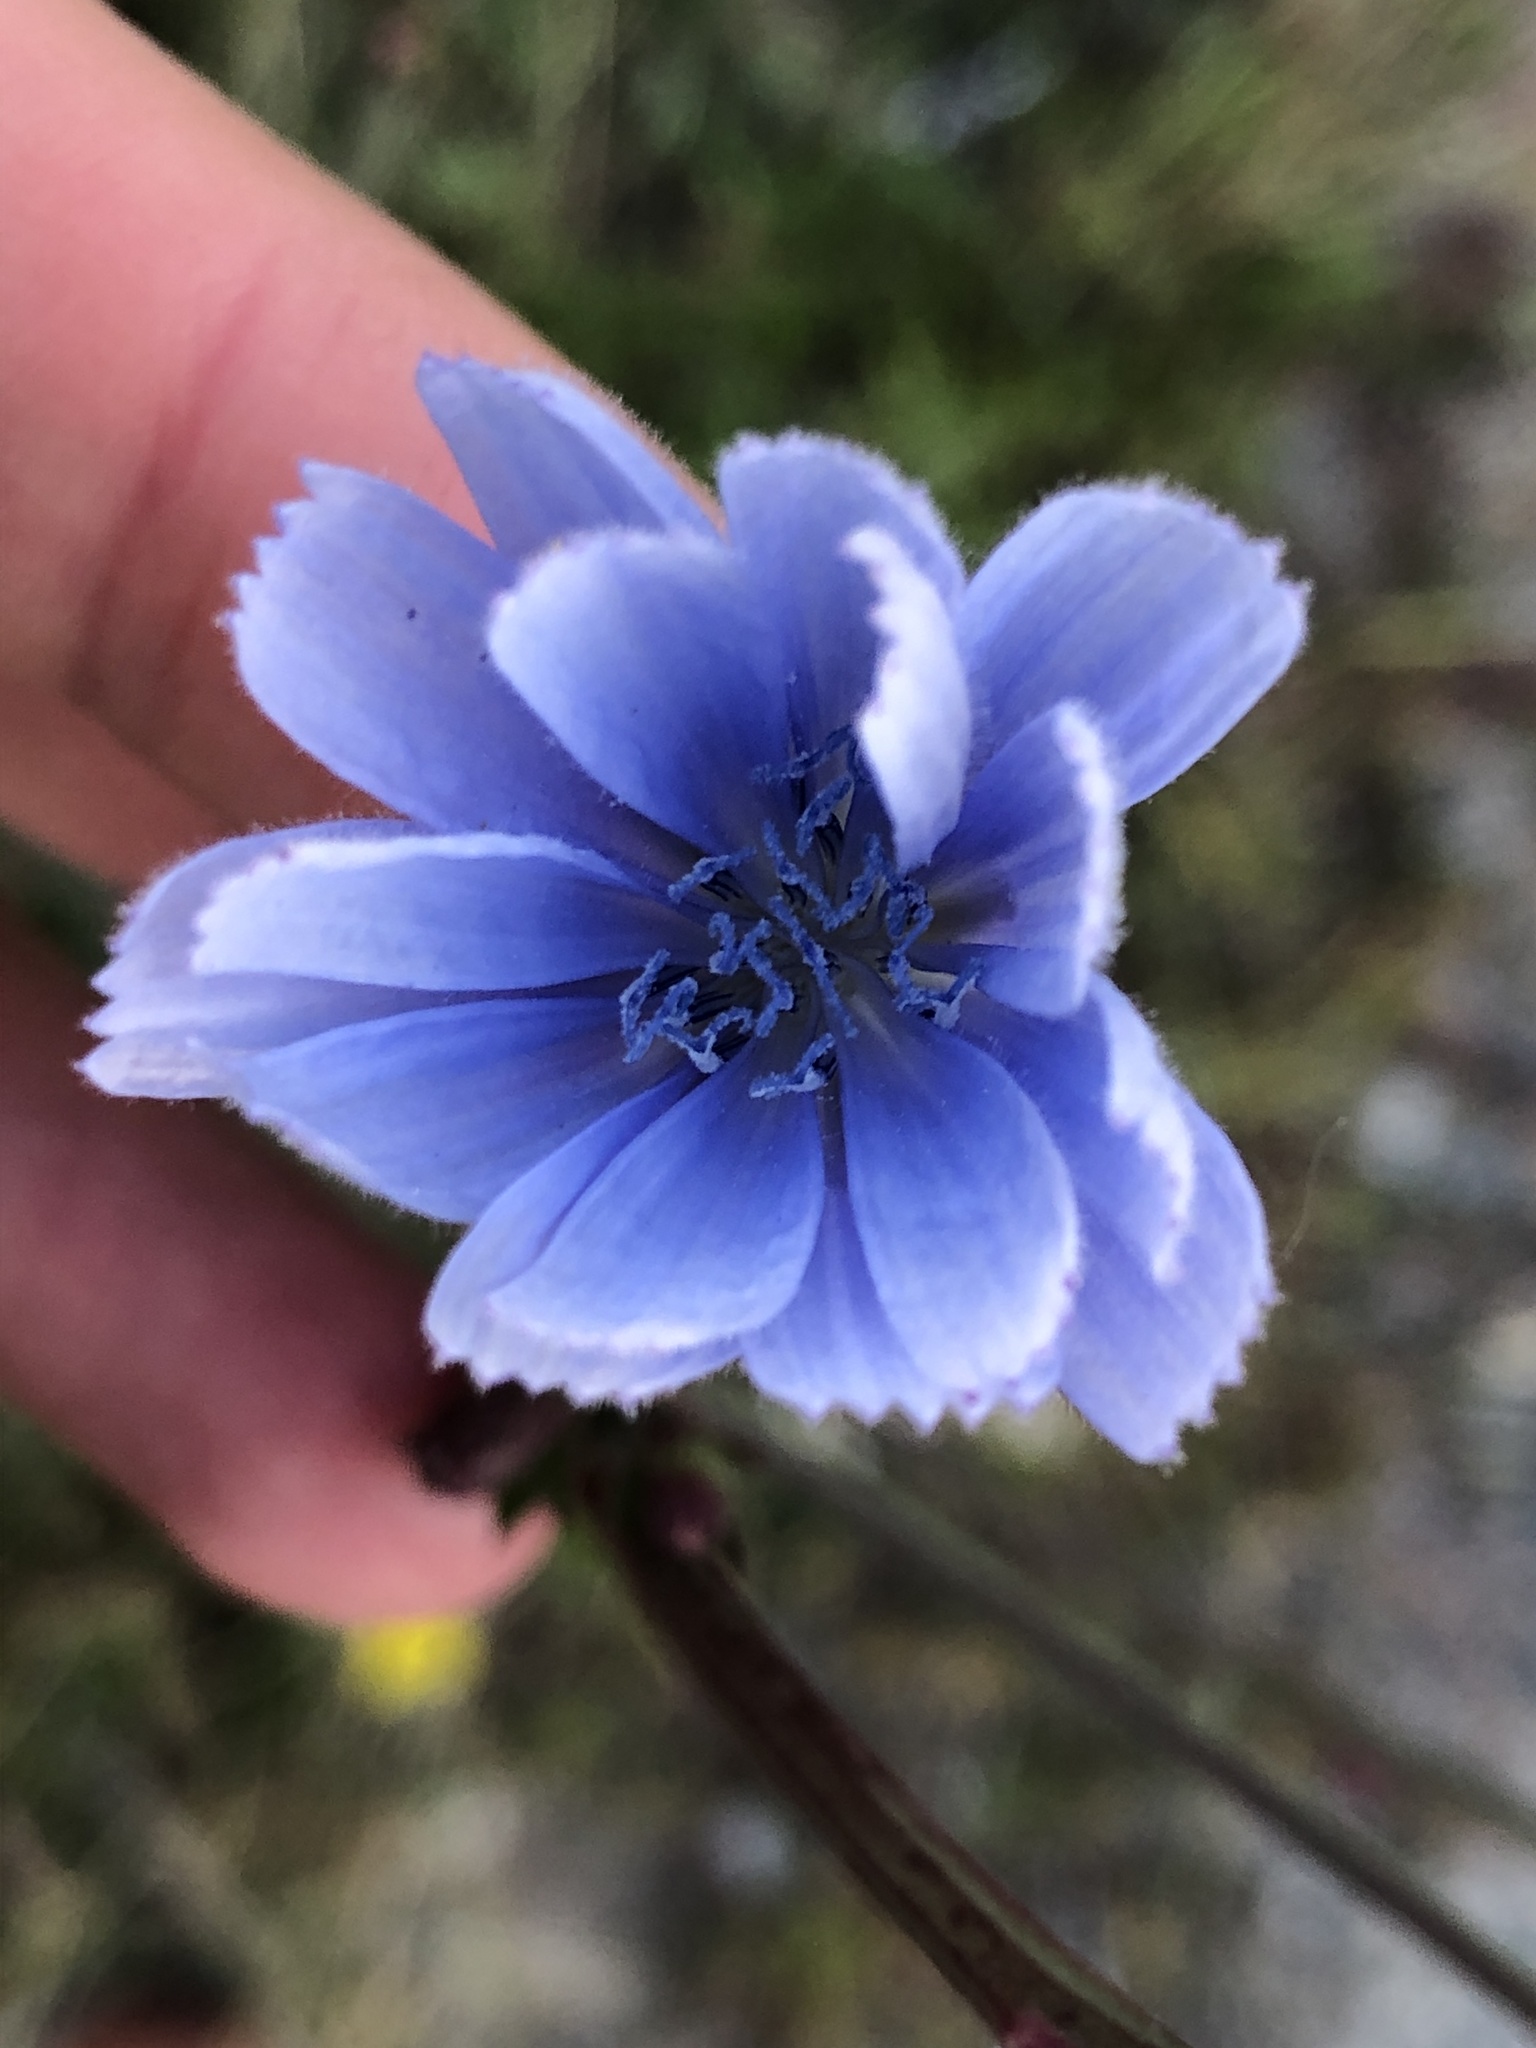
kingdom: Plantae
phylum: Tracheophyta
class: Magnoliopsida
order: Asterales
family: Asteraceae
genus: Cichorium
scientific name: Cichorium intybus
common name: Chicory
